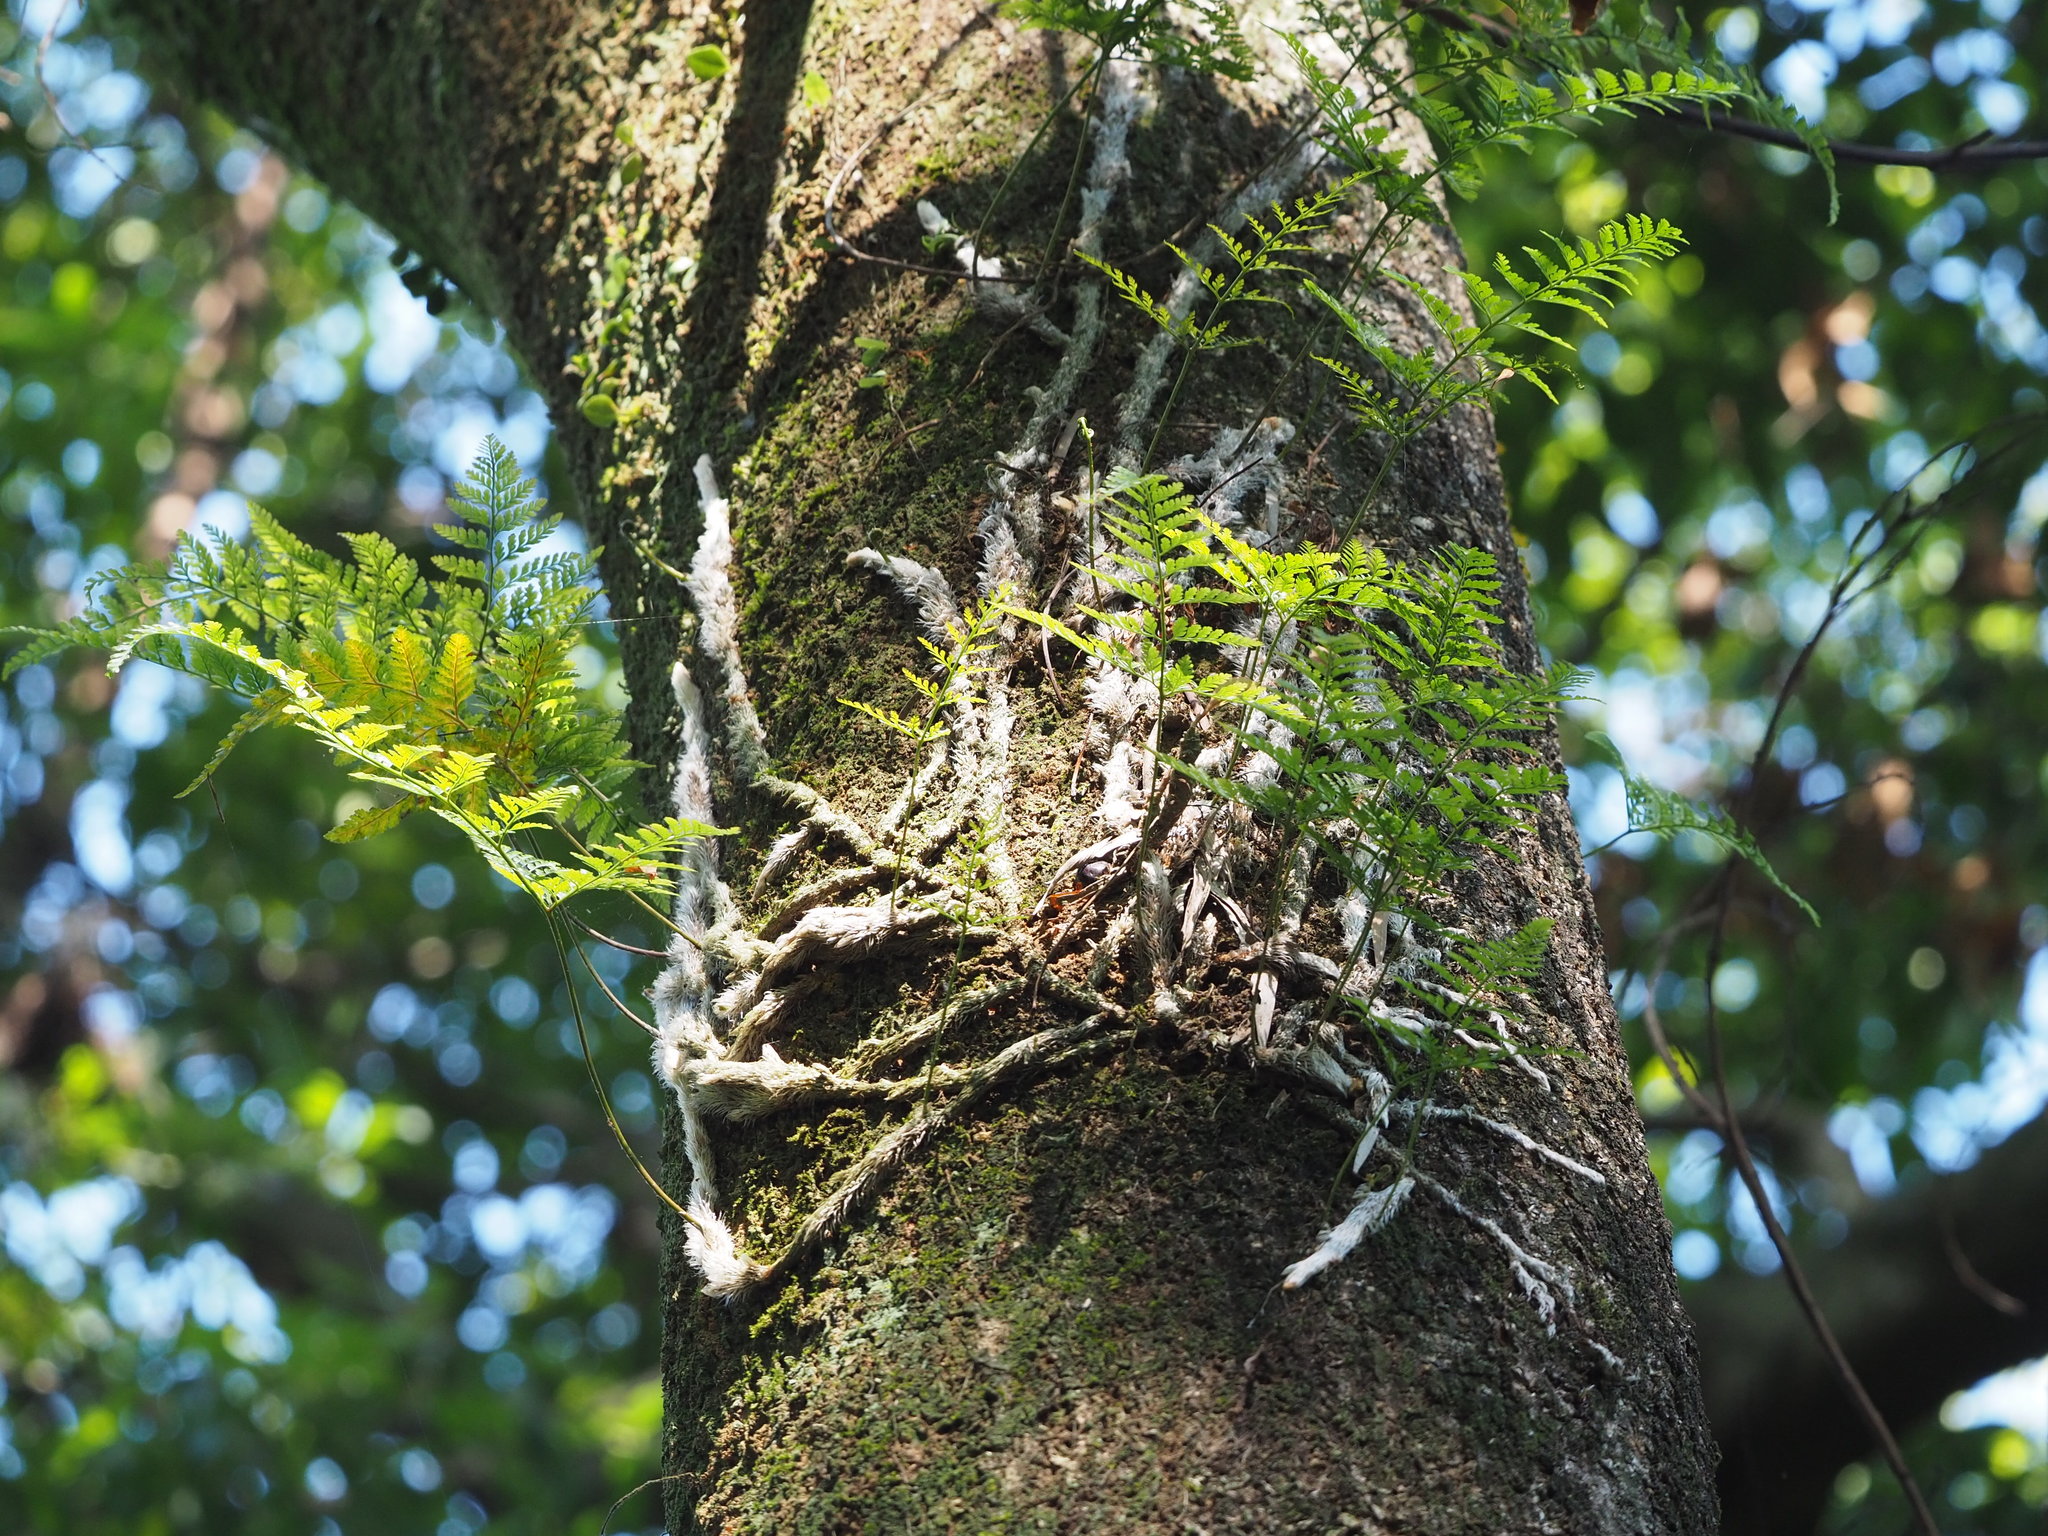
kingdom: Plantae
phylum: Tracheophyta
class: Polypodiopsida
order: Polypodiales
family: Davalliaceae
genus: Davallia
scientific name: Davallia griffithiana
